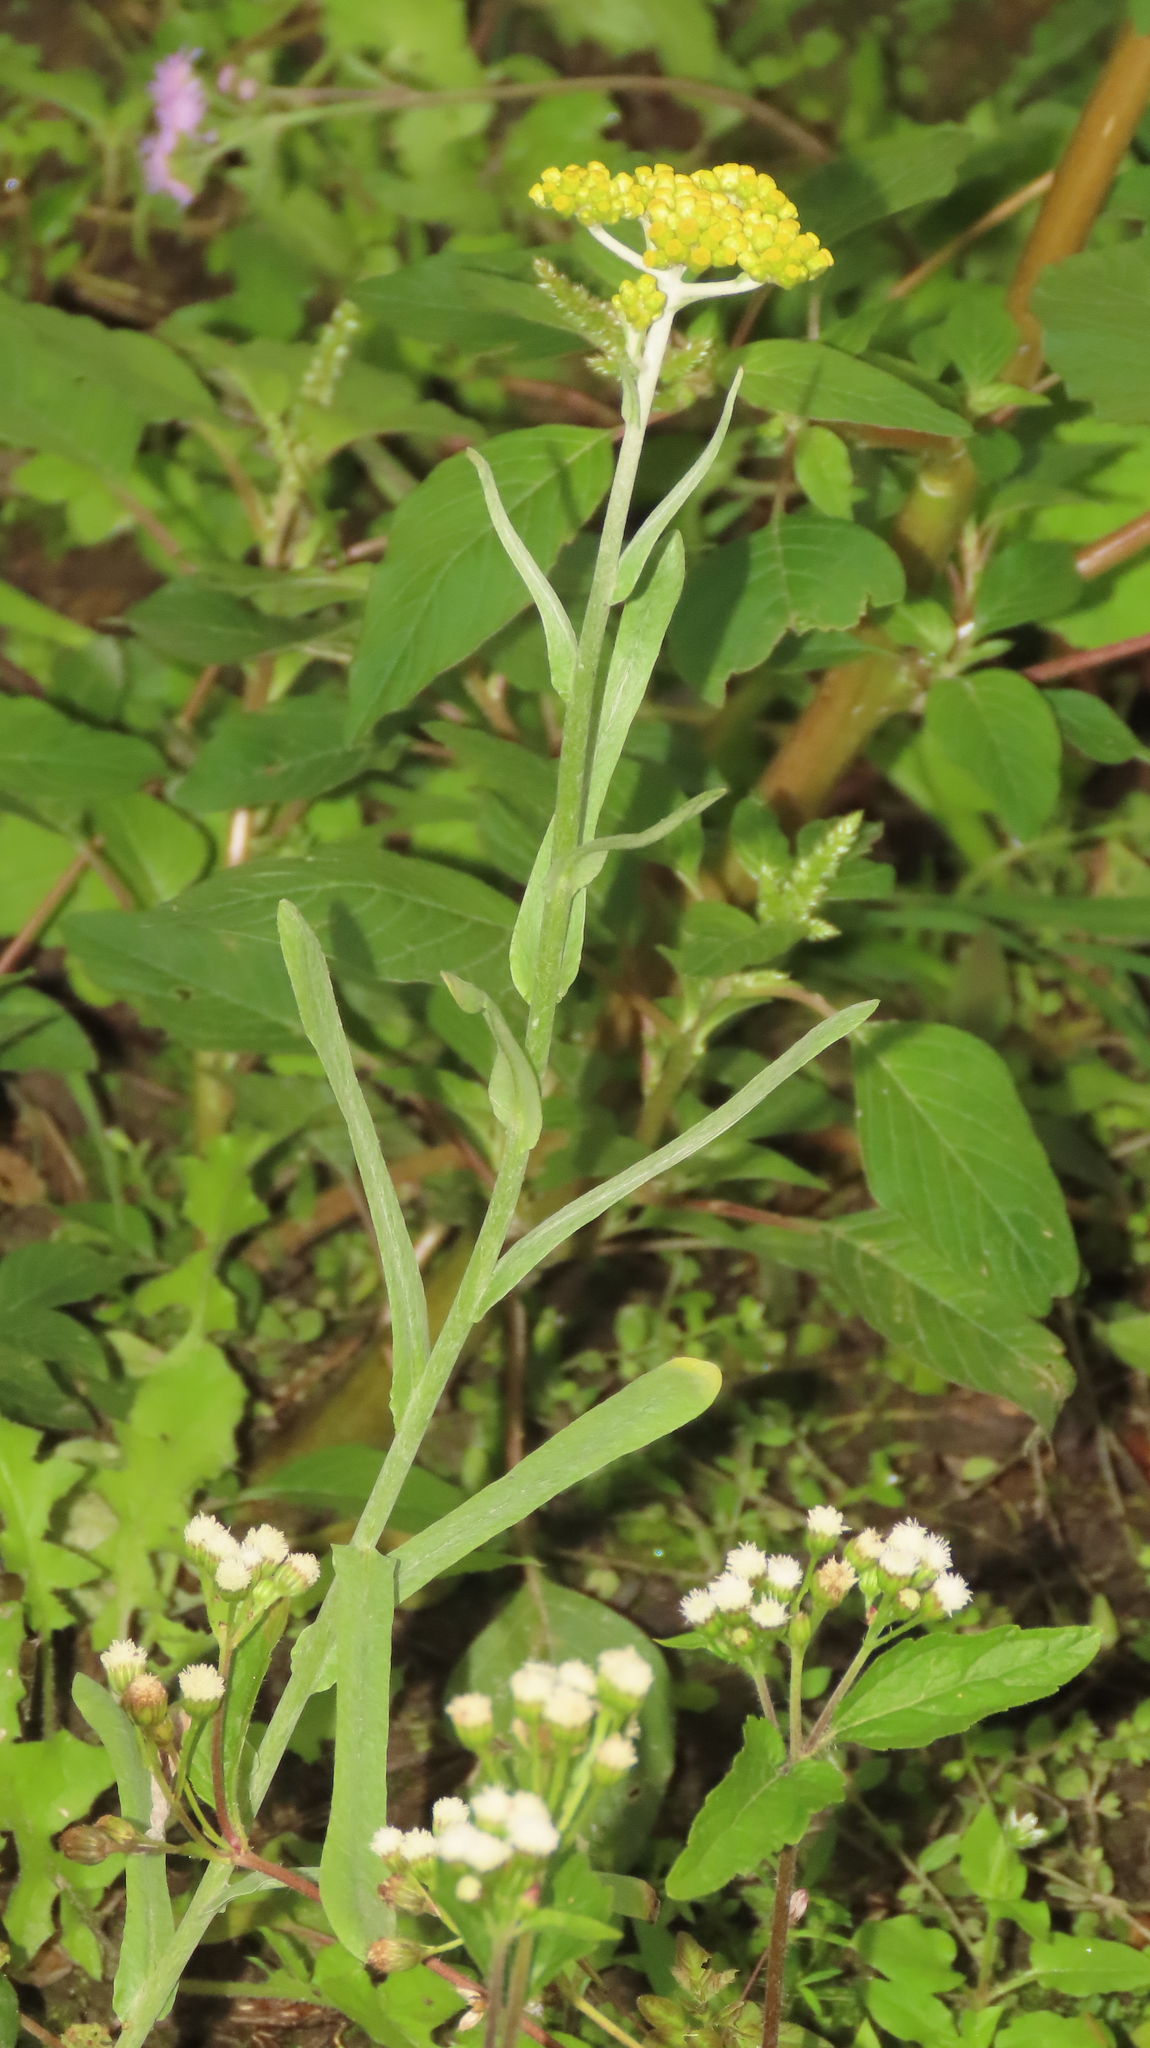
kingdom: Plantae
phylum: Tracheophyta
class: Magnoliopsida
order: Asterales
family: Asteraceae
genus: Pseudognaphalium
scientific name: Pseudognaphalium affine
